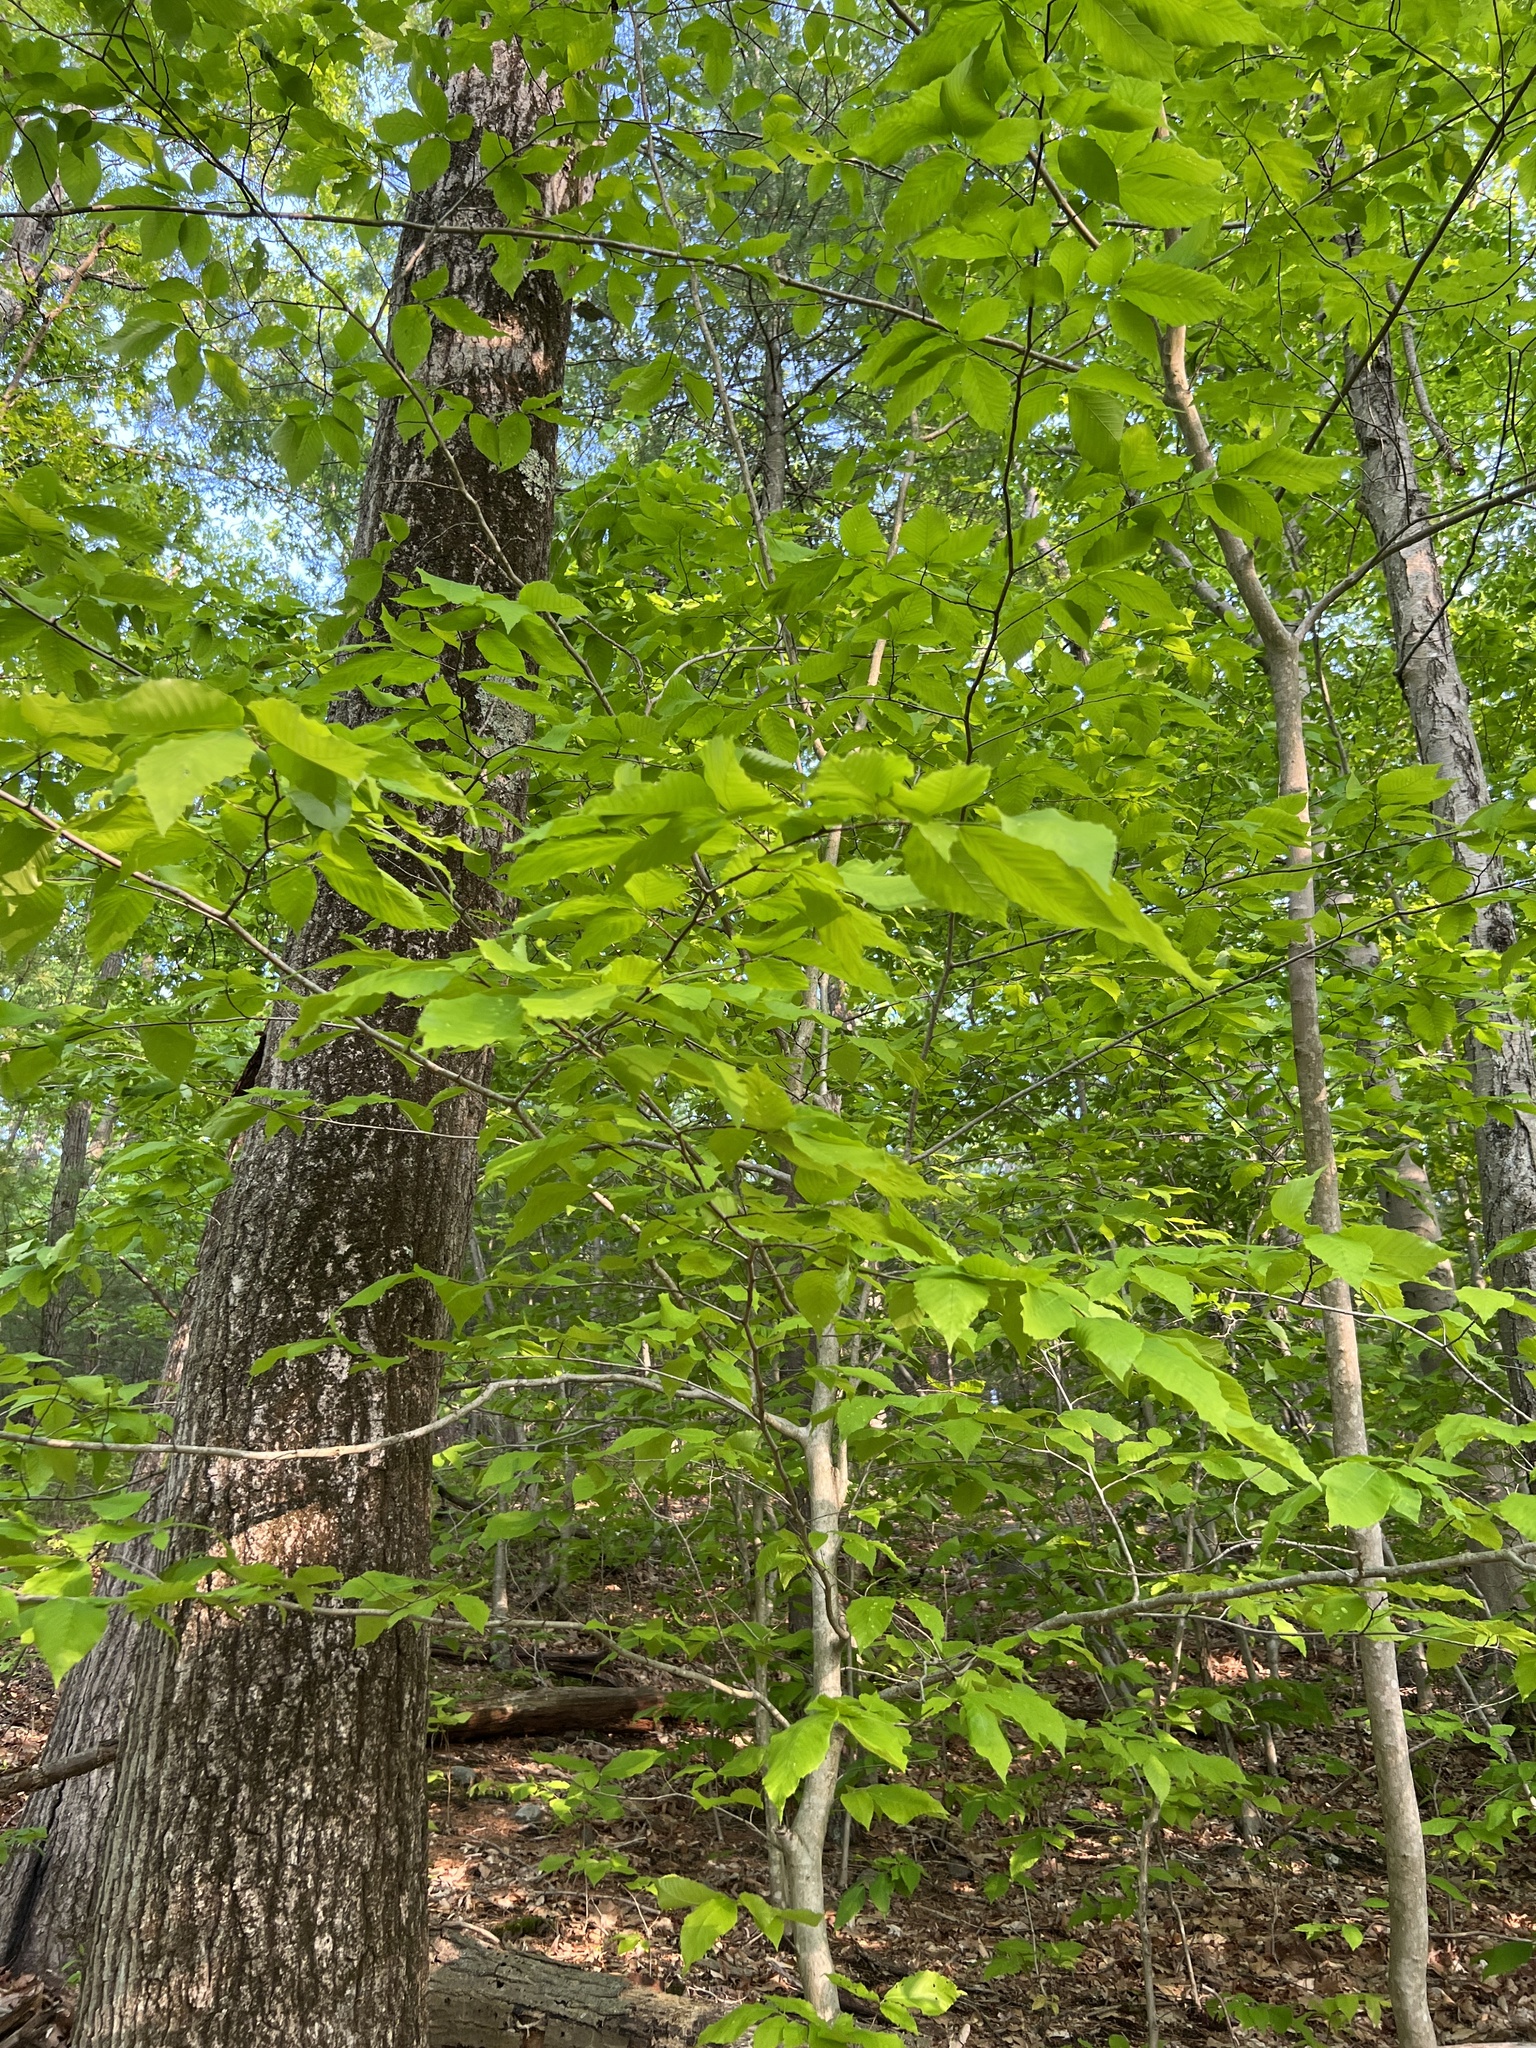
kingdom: Plantae
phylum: Tracheophyta
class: Magnoliopsida
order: Fagales
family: Fagaceae
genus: Fagus
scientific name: Fagus grandifolia
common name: American beech
